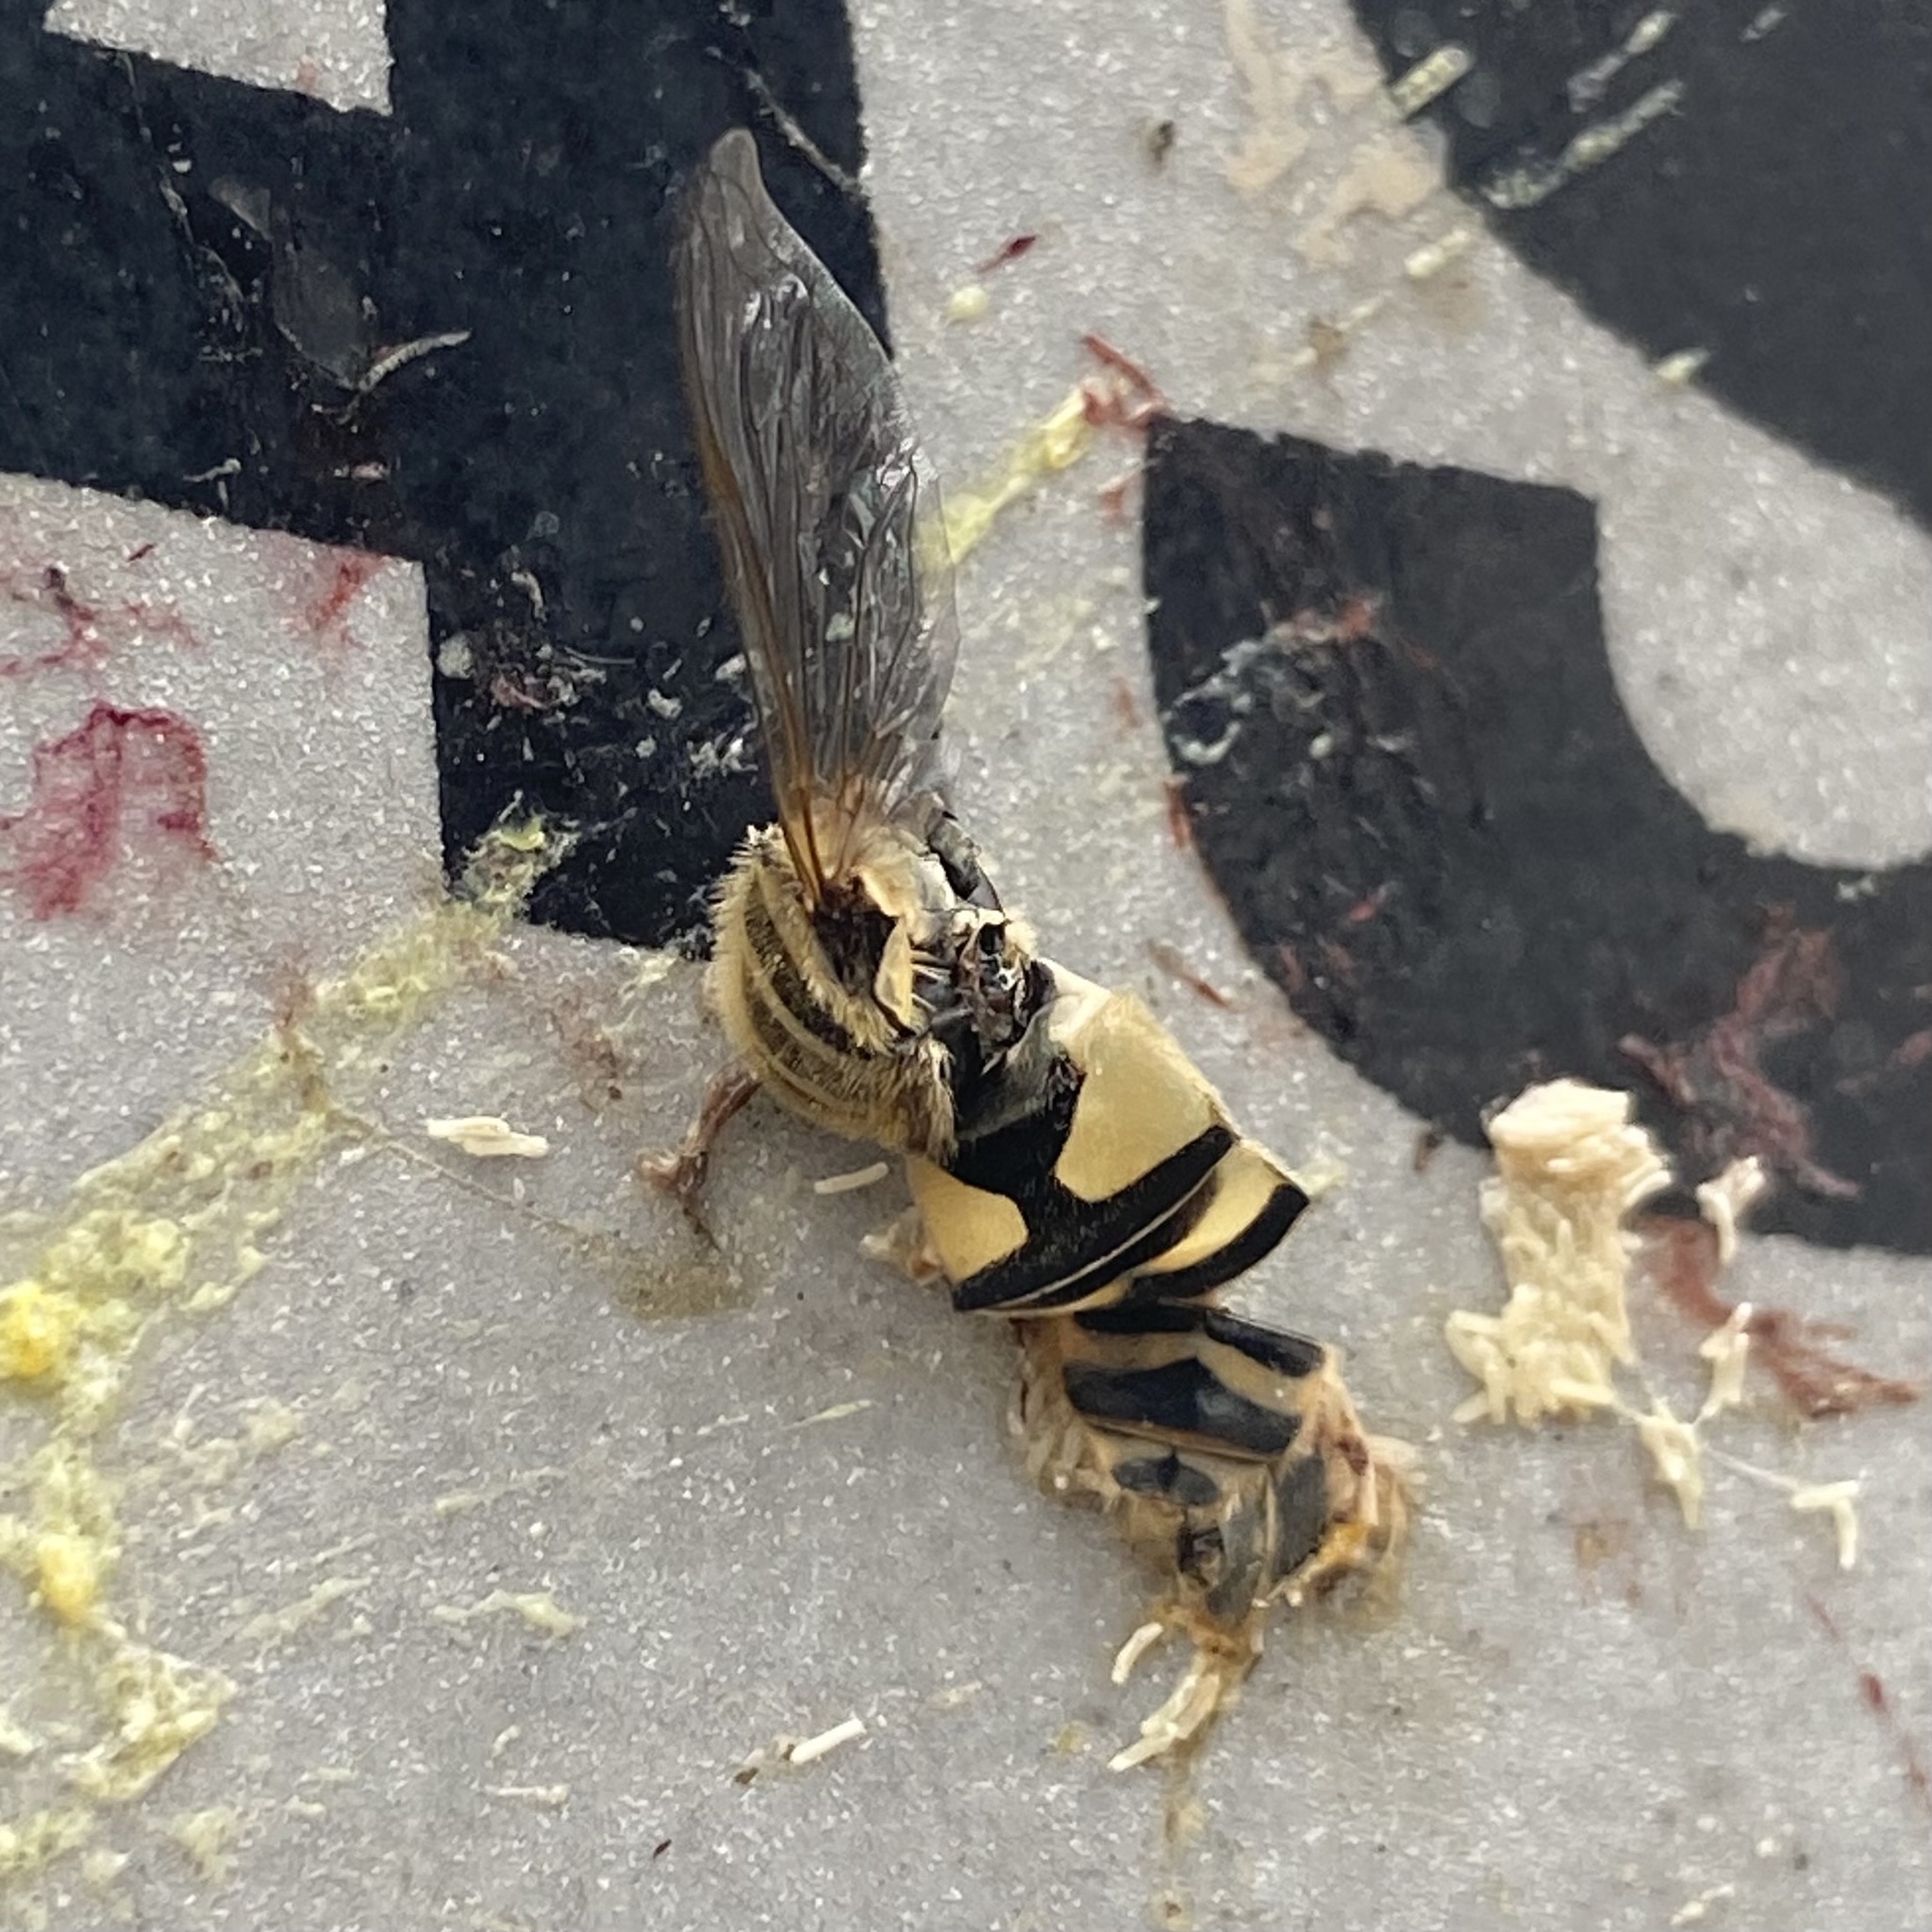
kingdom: Animalia
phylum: Arthropoda
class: Insecta
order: Diptera
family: Syrphidae
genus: Helophilus
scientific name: Helophilus latifrons
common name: Broad-headed marsh fly
